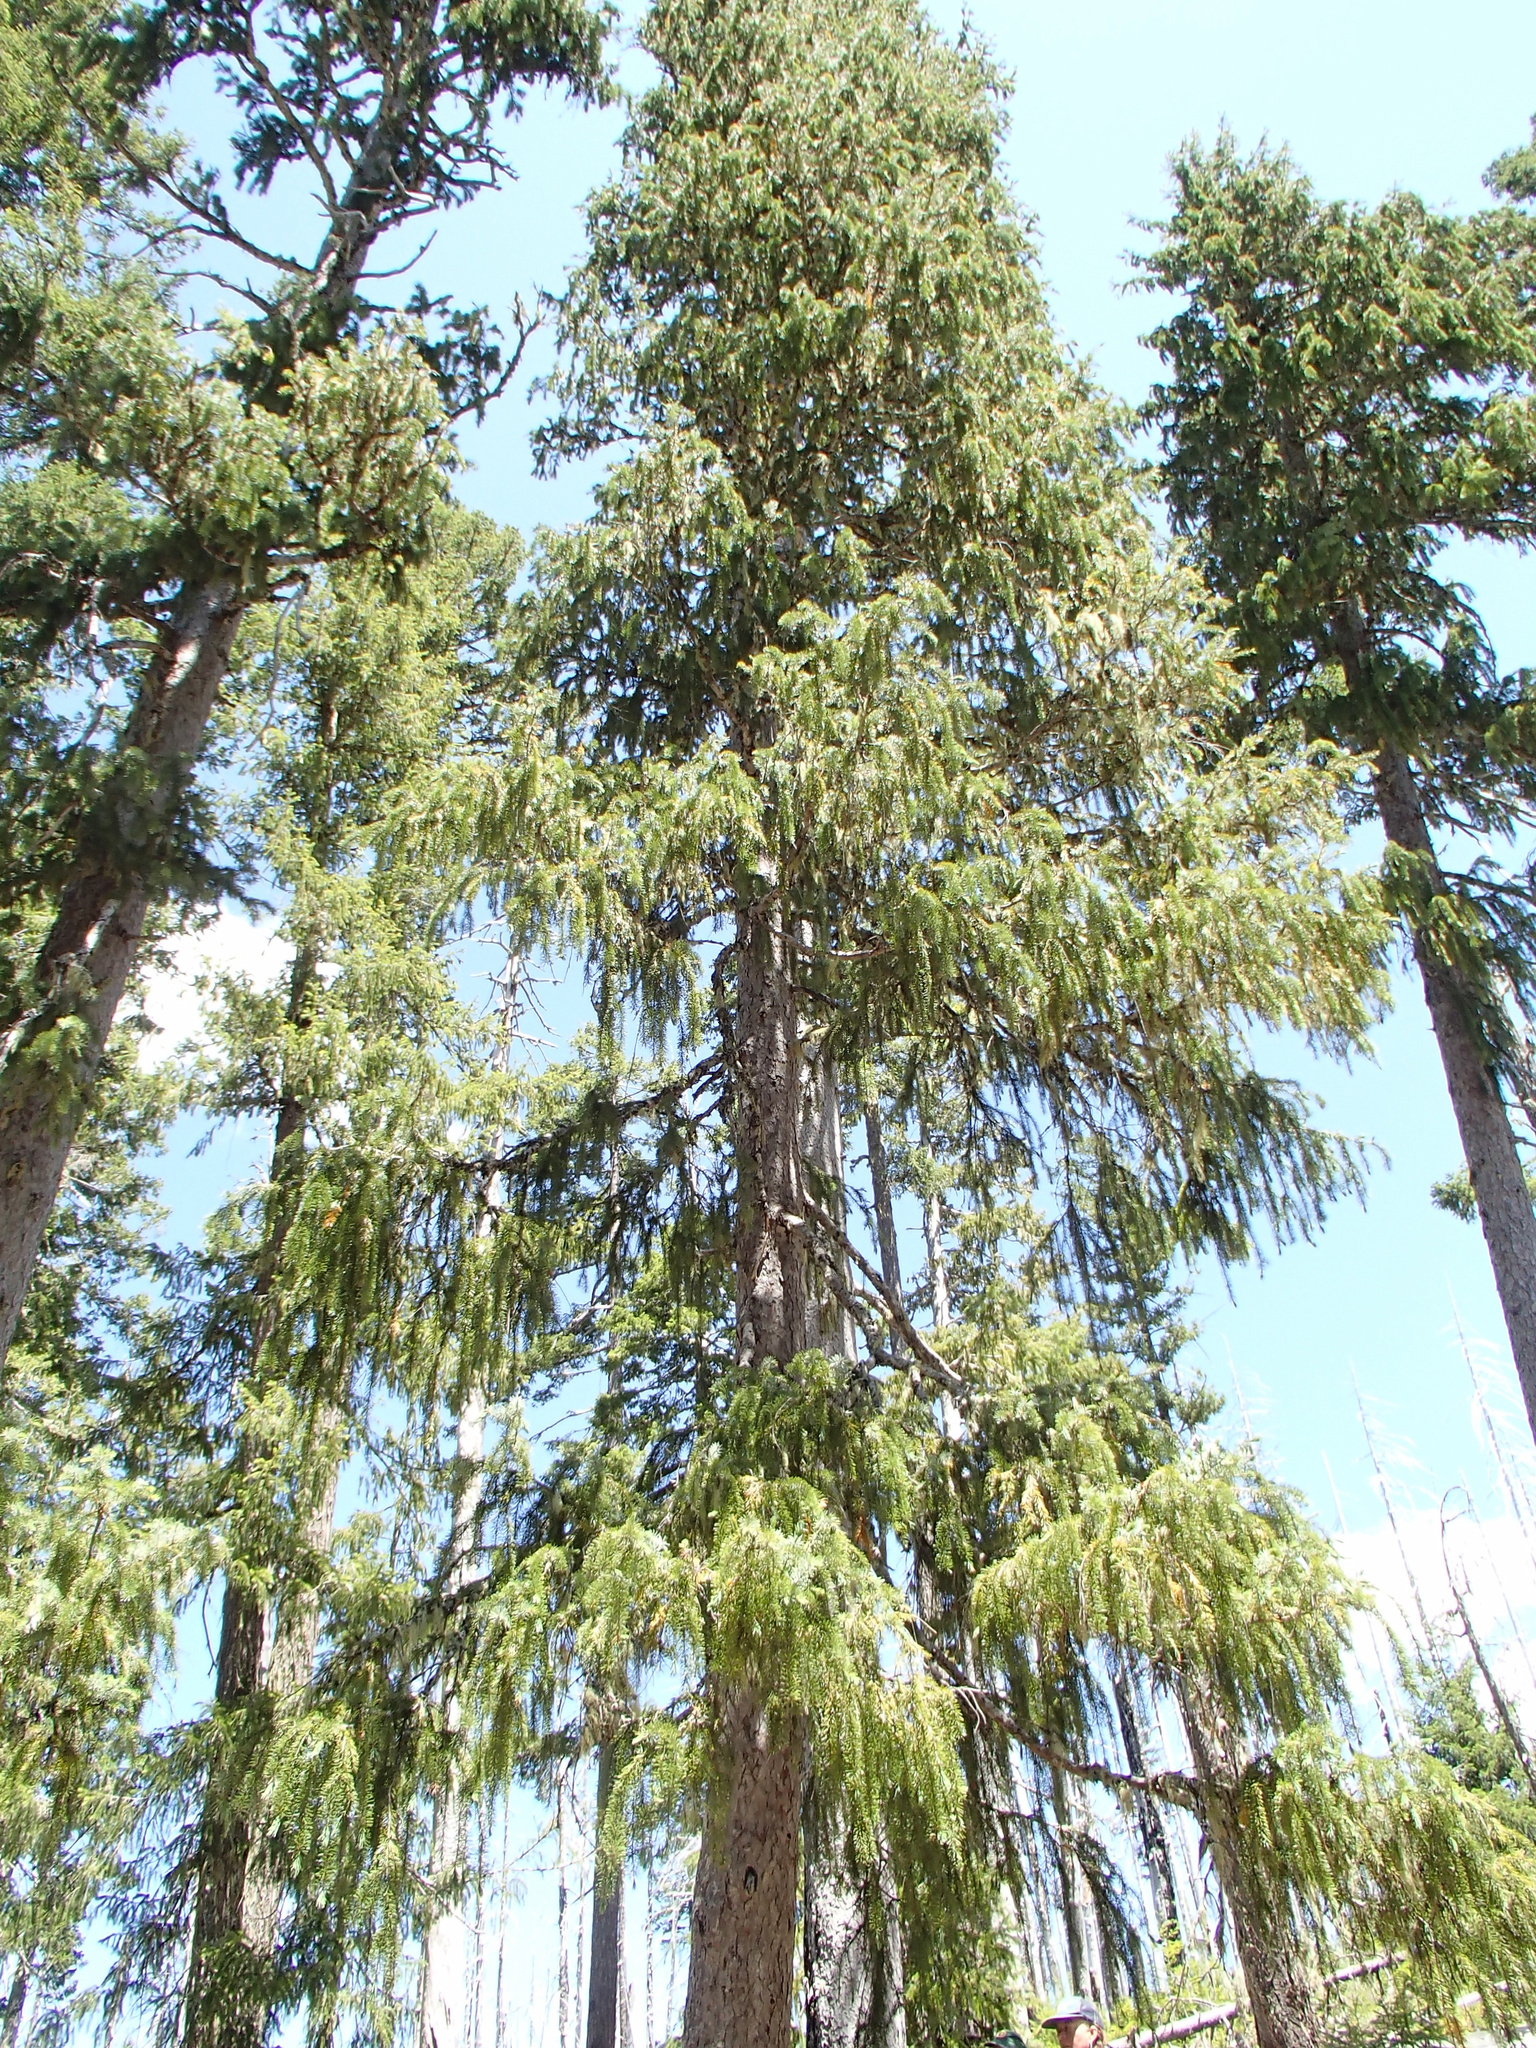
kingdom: Plantae
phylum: Tracheophyta
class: Pinopsida
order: Pinales
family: Pinaceae
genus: Picea
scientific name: Picea breweriana
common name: Brewer's spruce
